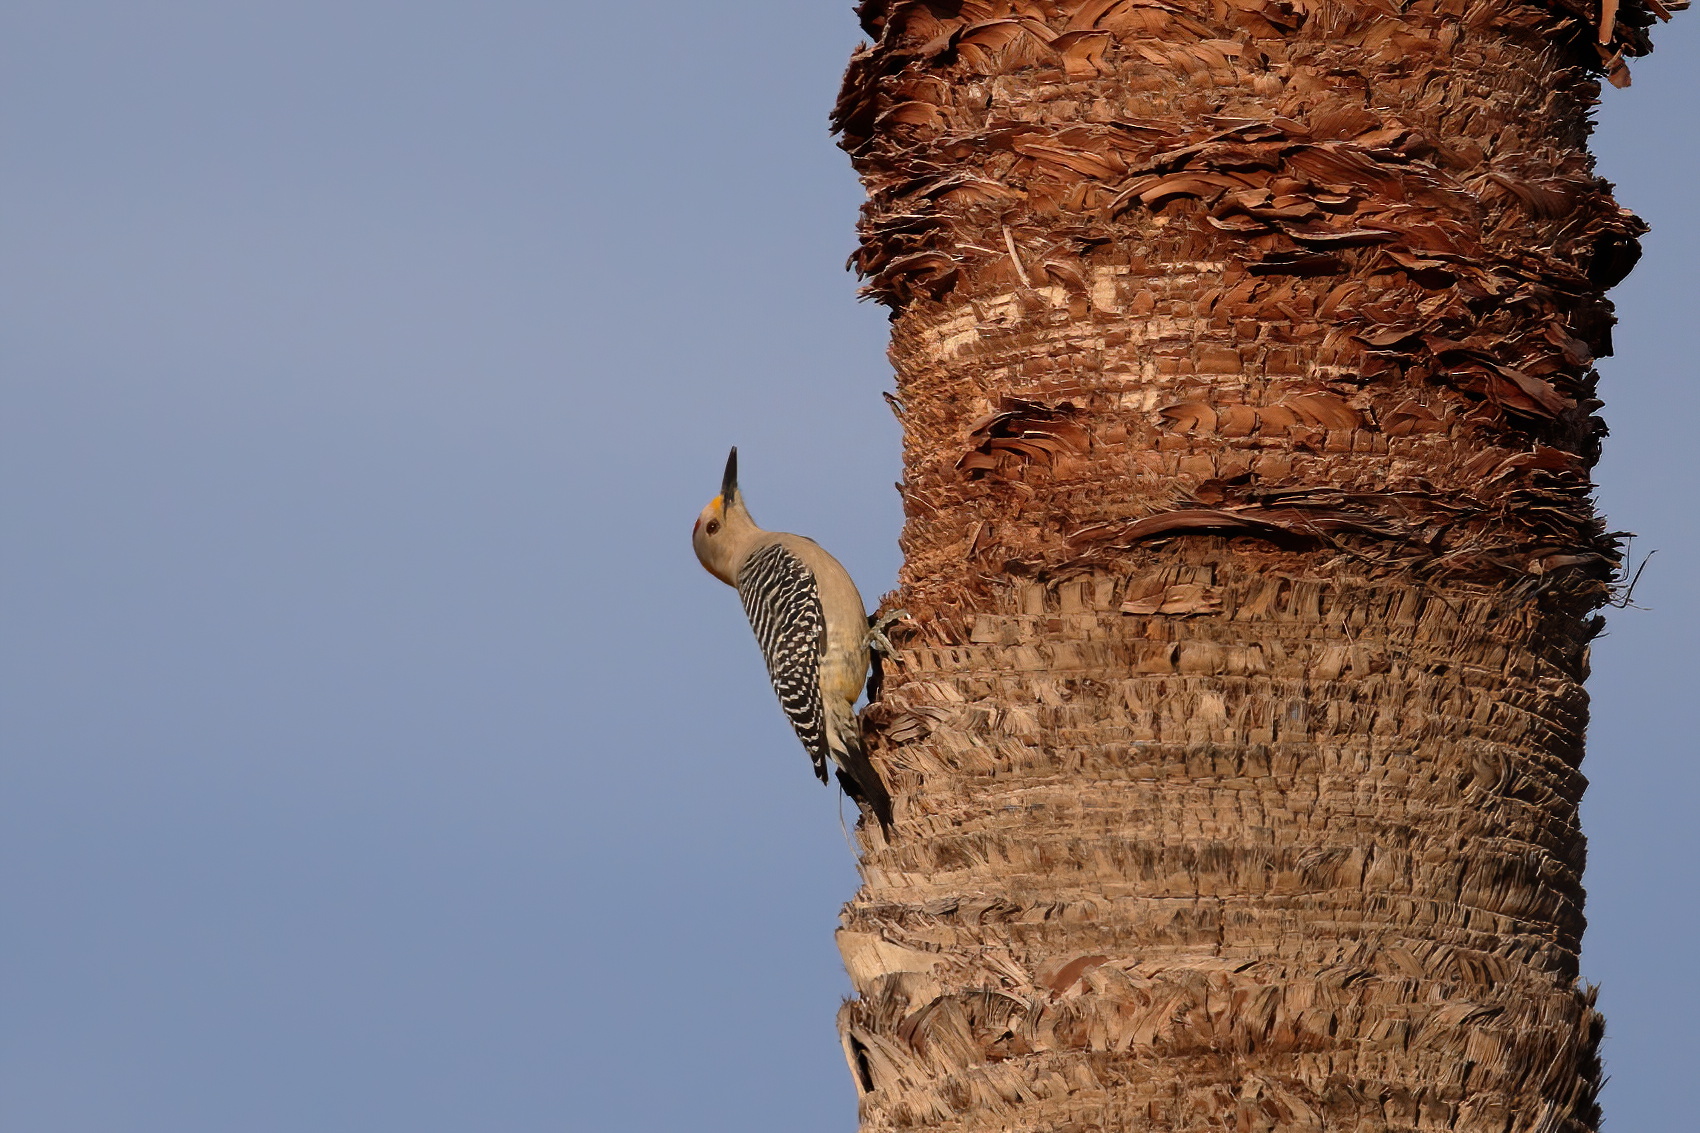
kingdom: Animalia
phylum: Chordata
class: Aves
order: Piciformes
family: Picidae
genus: Melanerpes
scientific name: Melanerpes aurifrons
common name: Golden-fronted woodpecker
